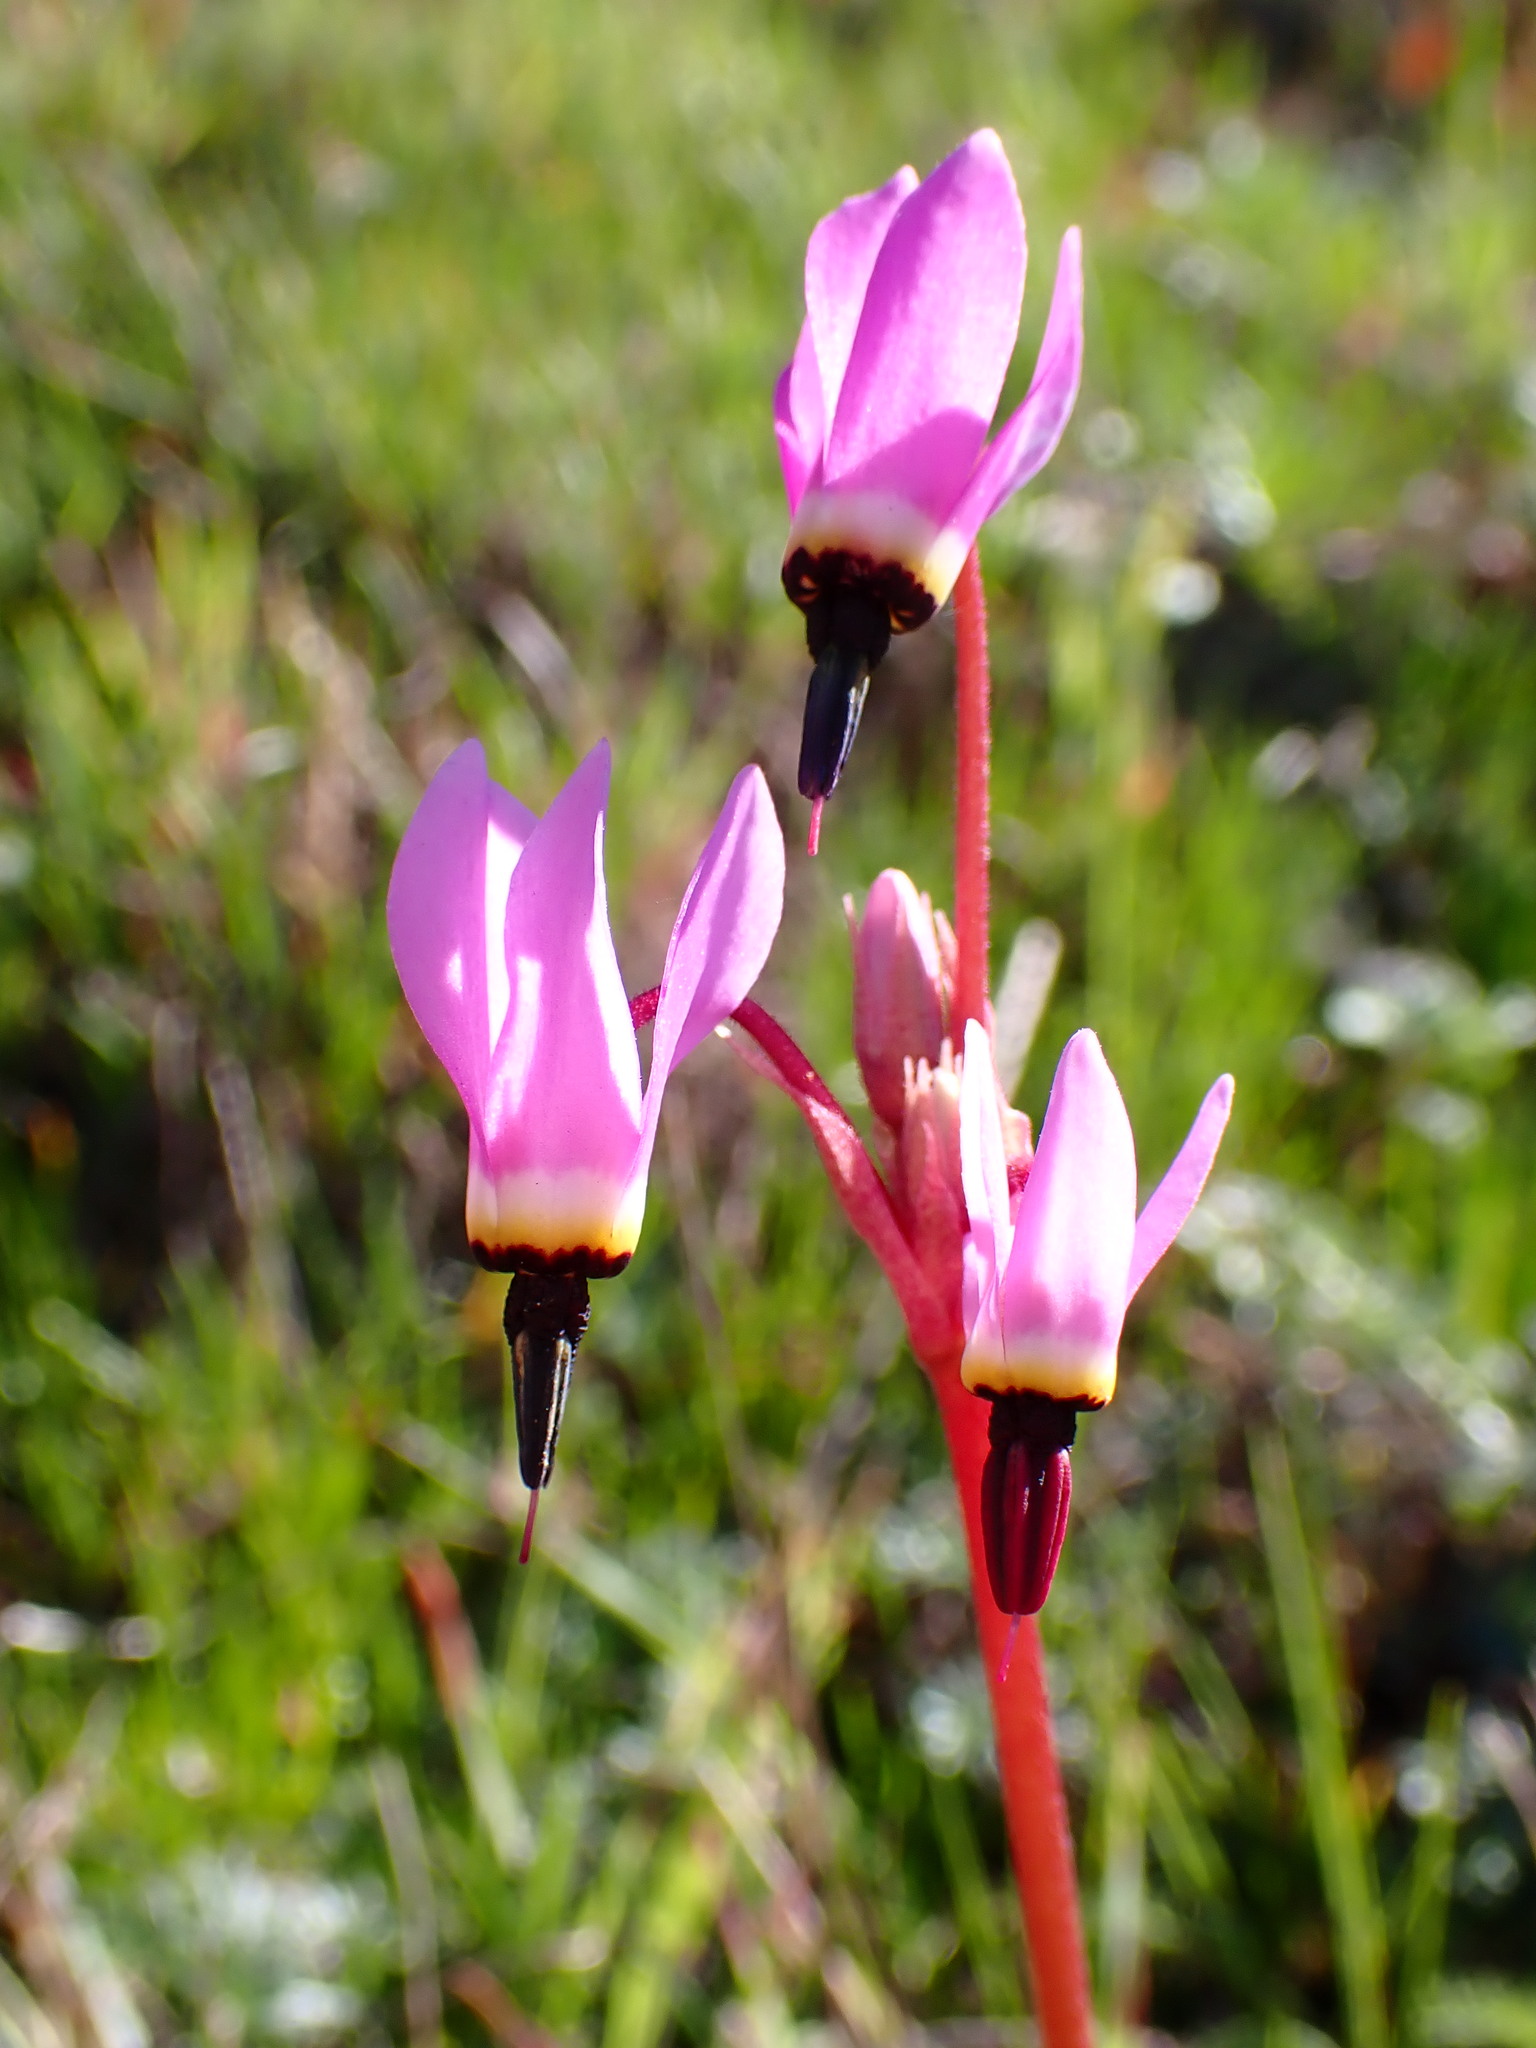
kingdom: Plantae
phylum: Tracheophyta
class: Magnoliopsida
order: Ericales
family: Primulaceae
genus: Dodecatheon
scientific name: Dodecatheon hendersonii
